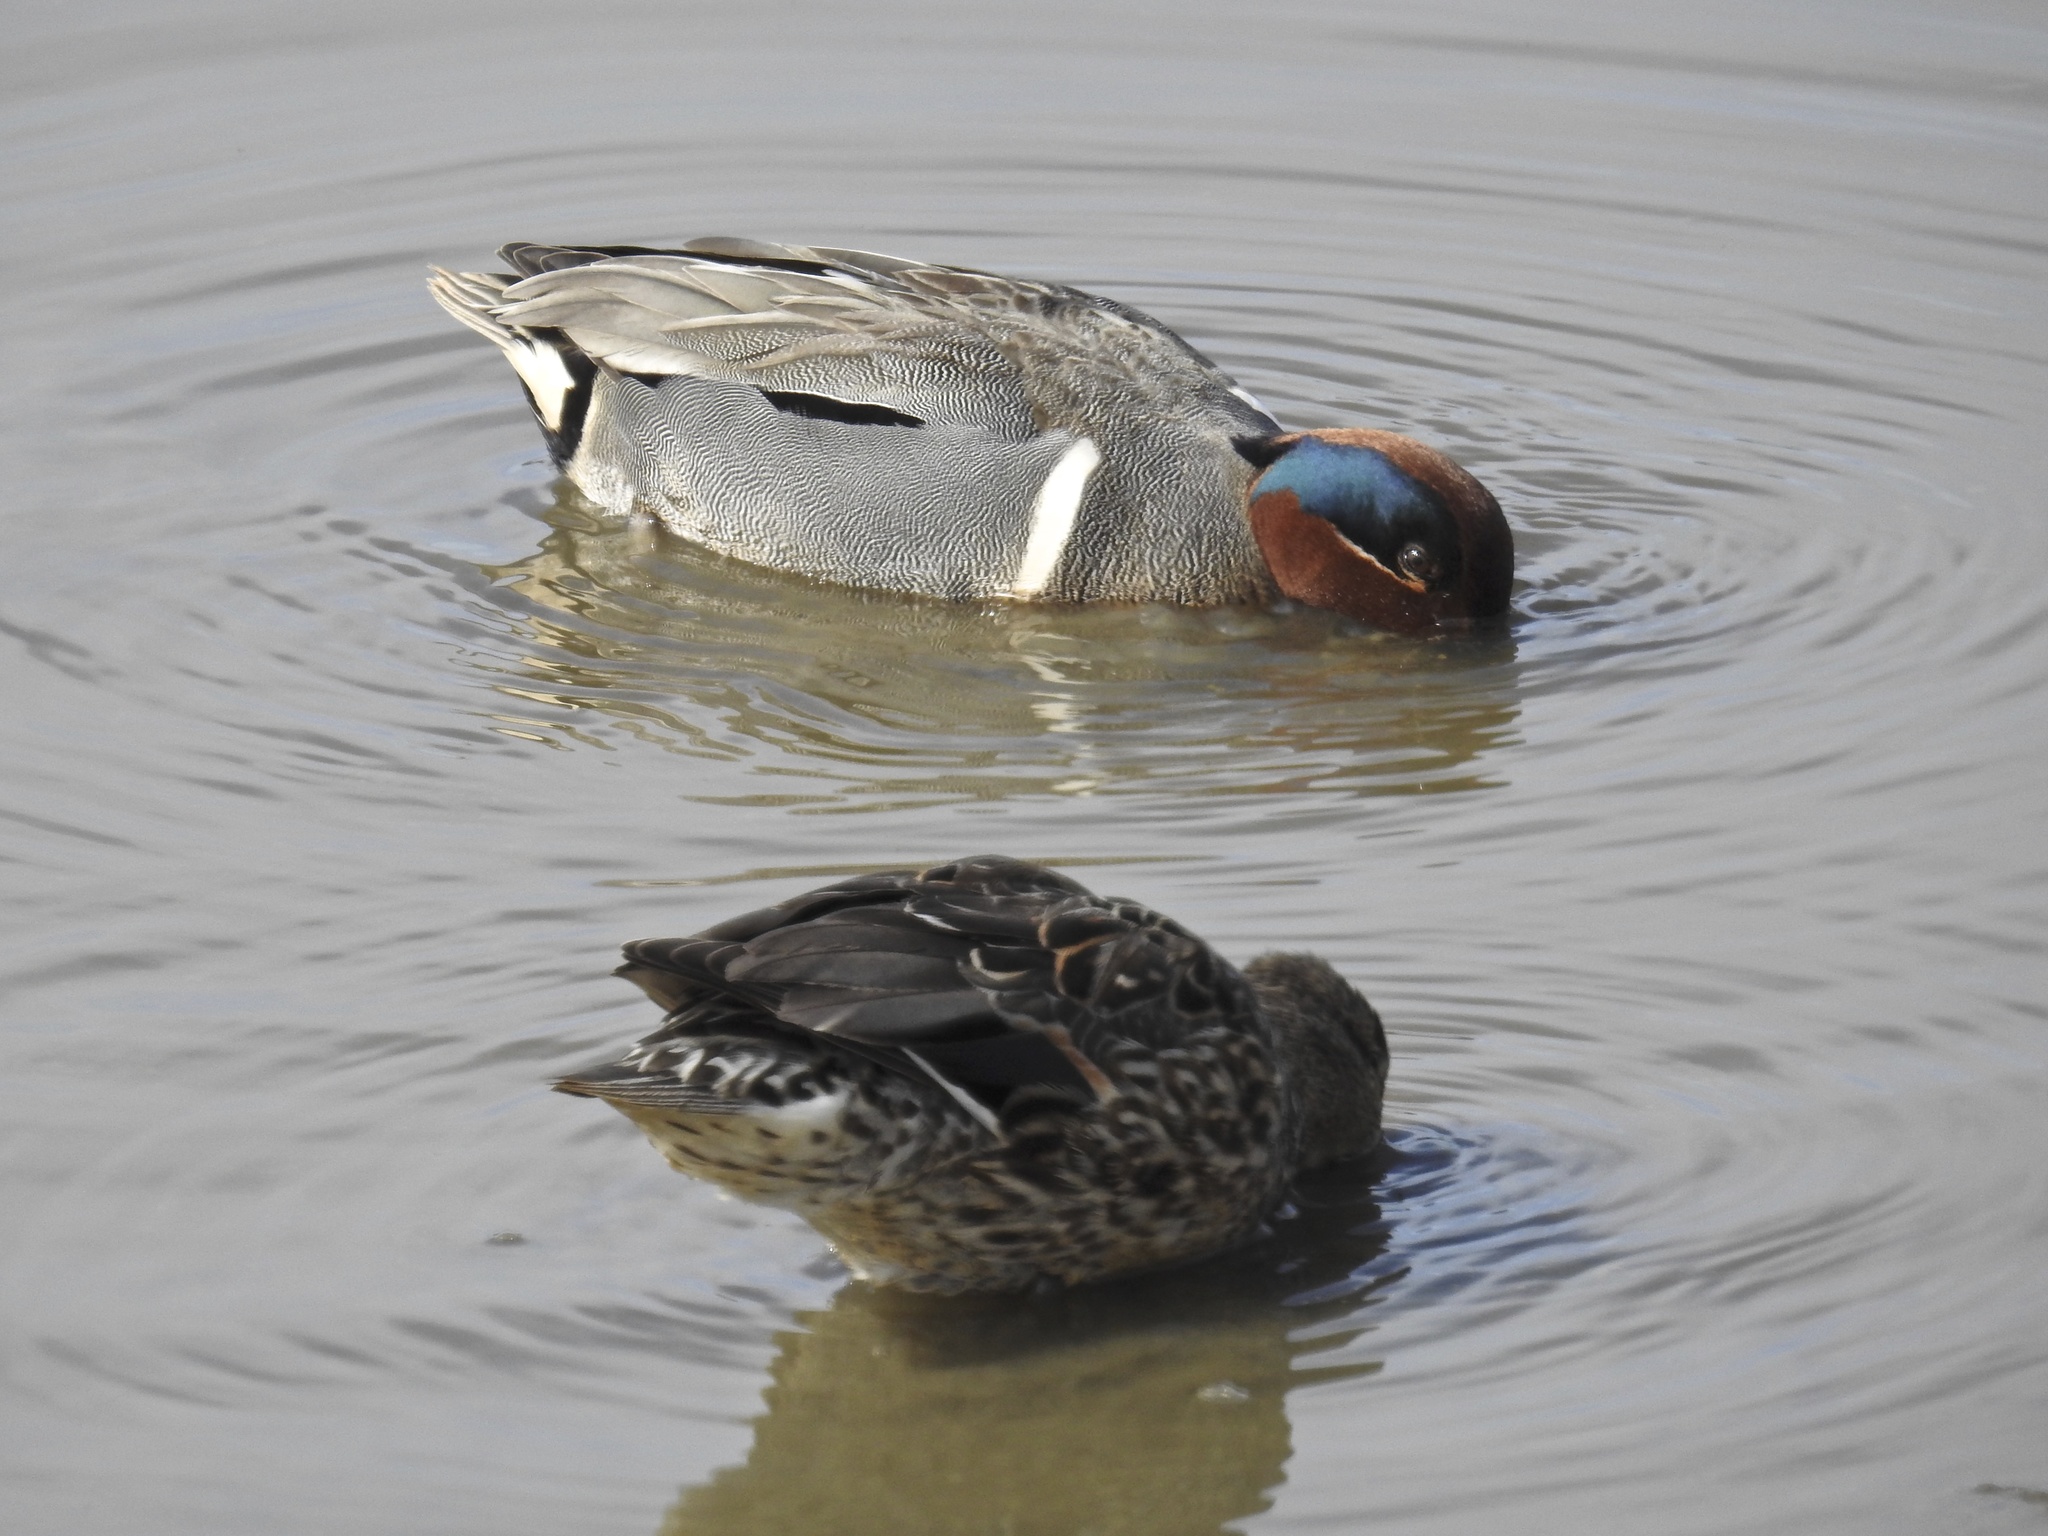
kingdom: Animalia
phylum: Chordata
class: Aves
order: Anseriformes
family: Anatidae
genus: Anas
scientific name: Anas crecca
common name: Eurasian teal
